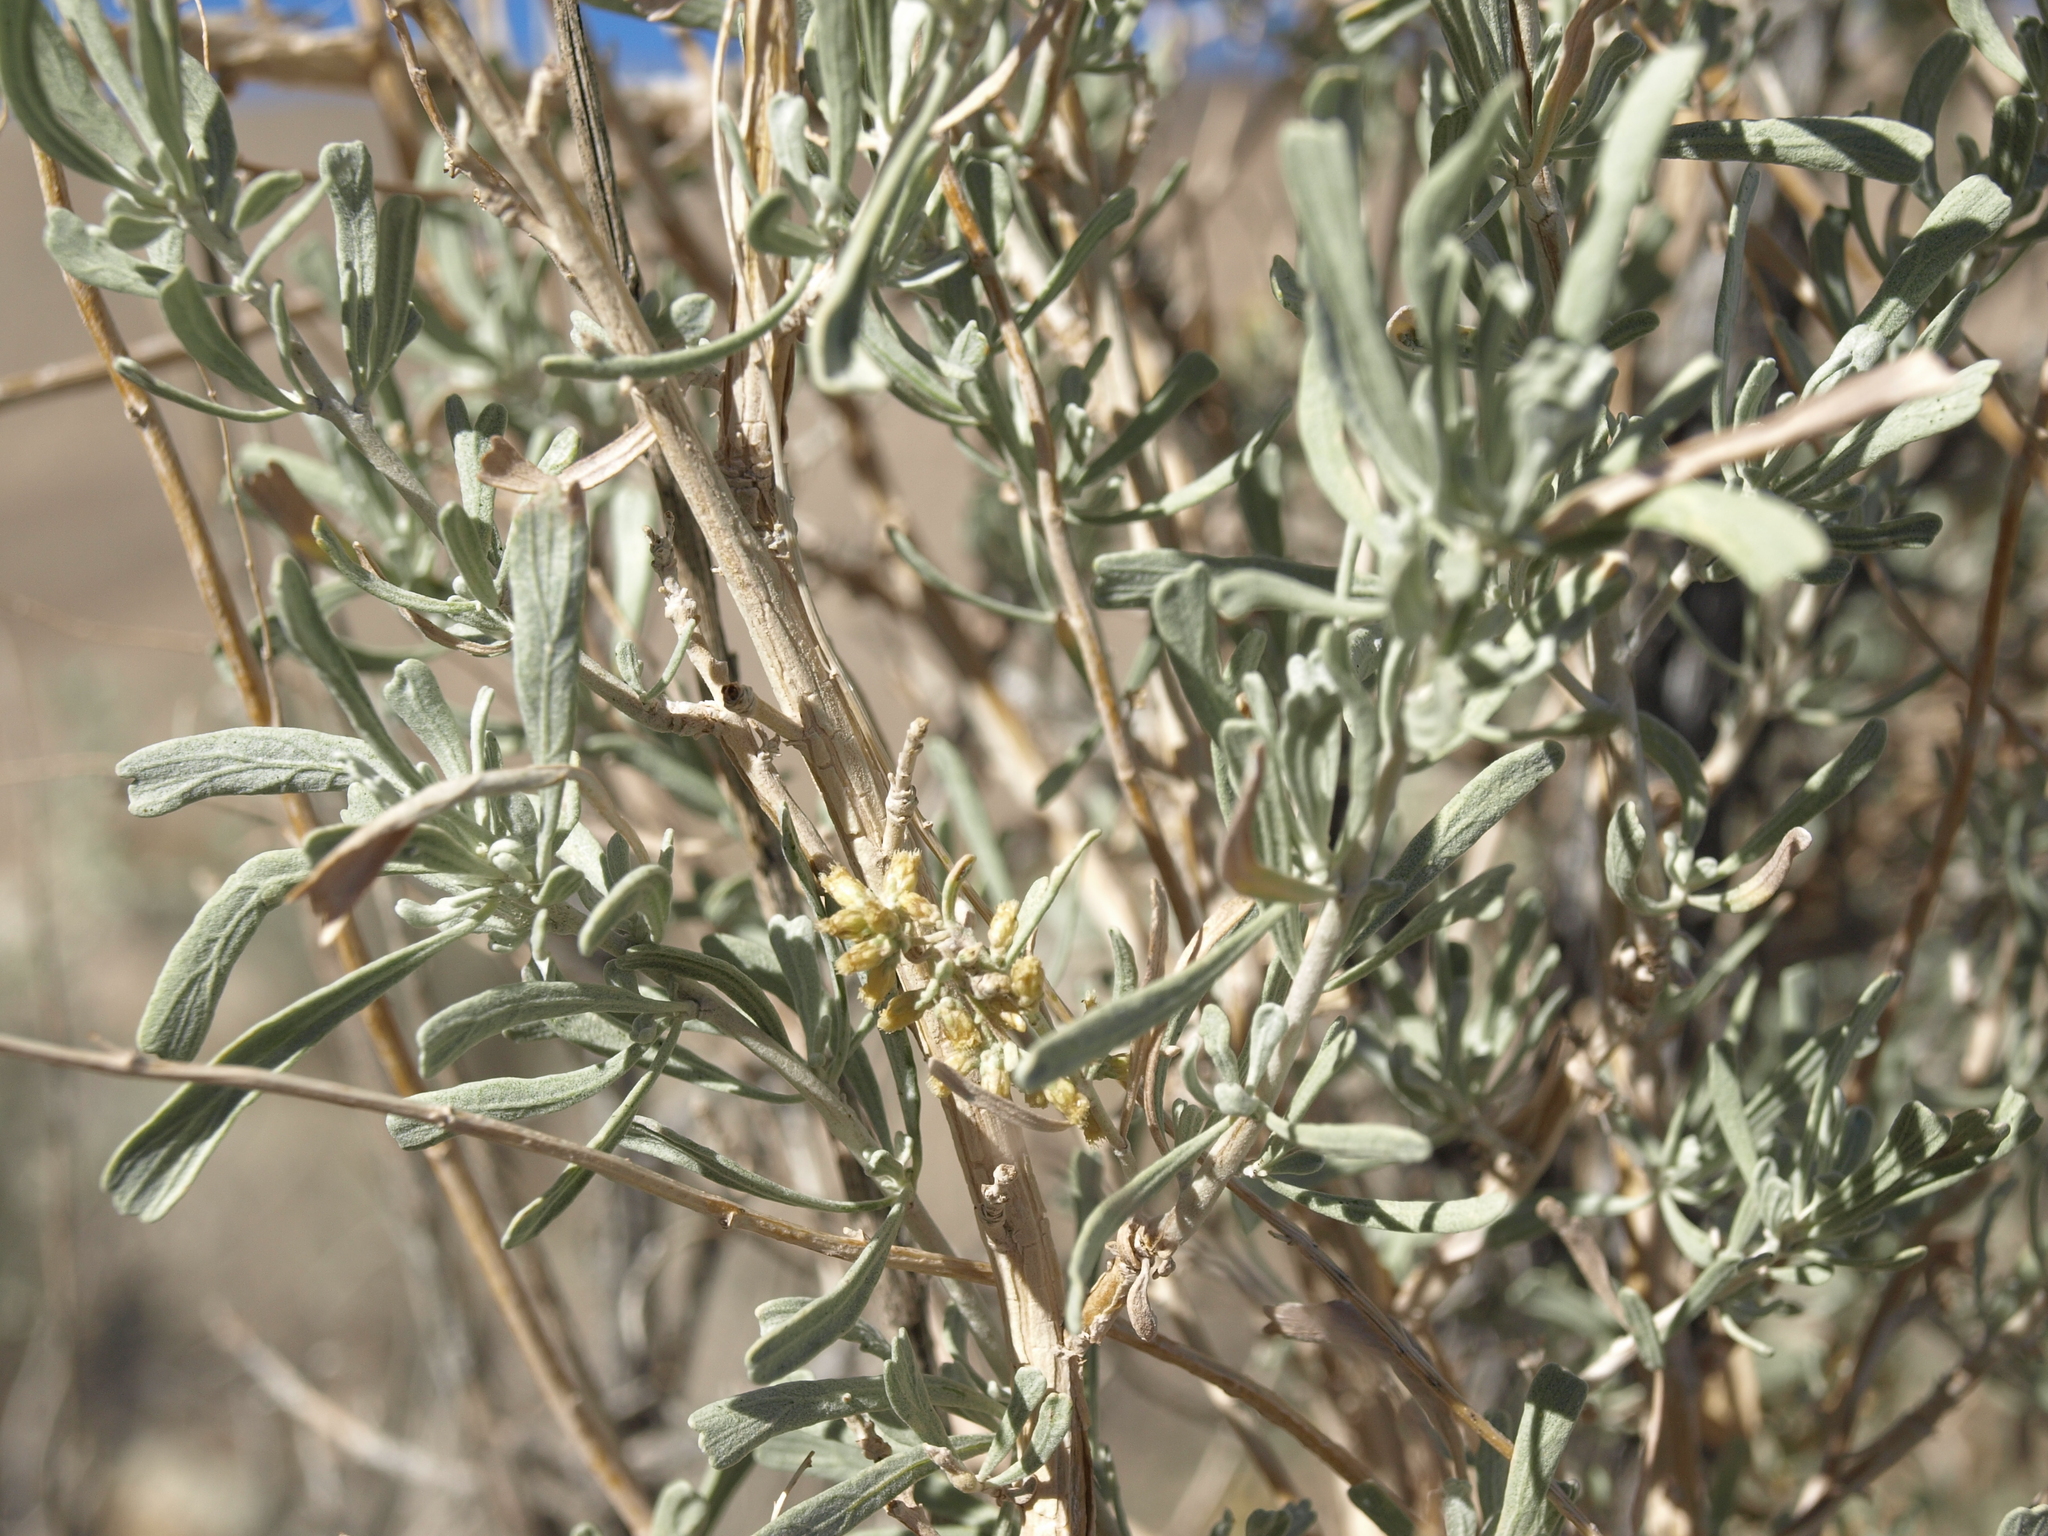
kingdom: Plantae
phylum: Tracheophyta
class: Magnoliopsida
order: Asterales
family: Asteraceae
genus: Artemisia
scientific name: Artemisia tridentata
